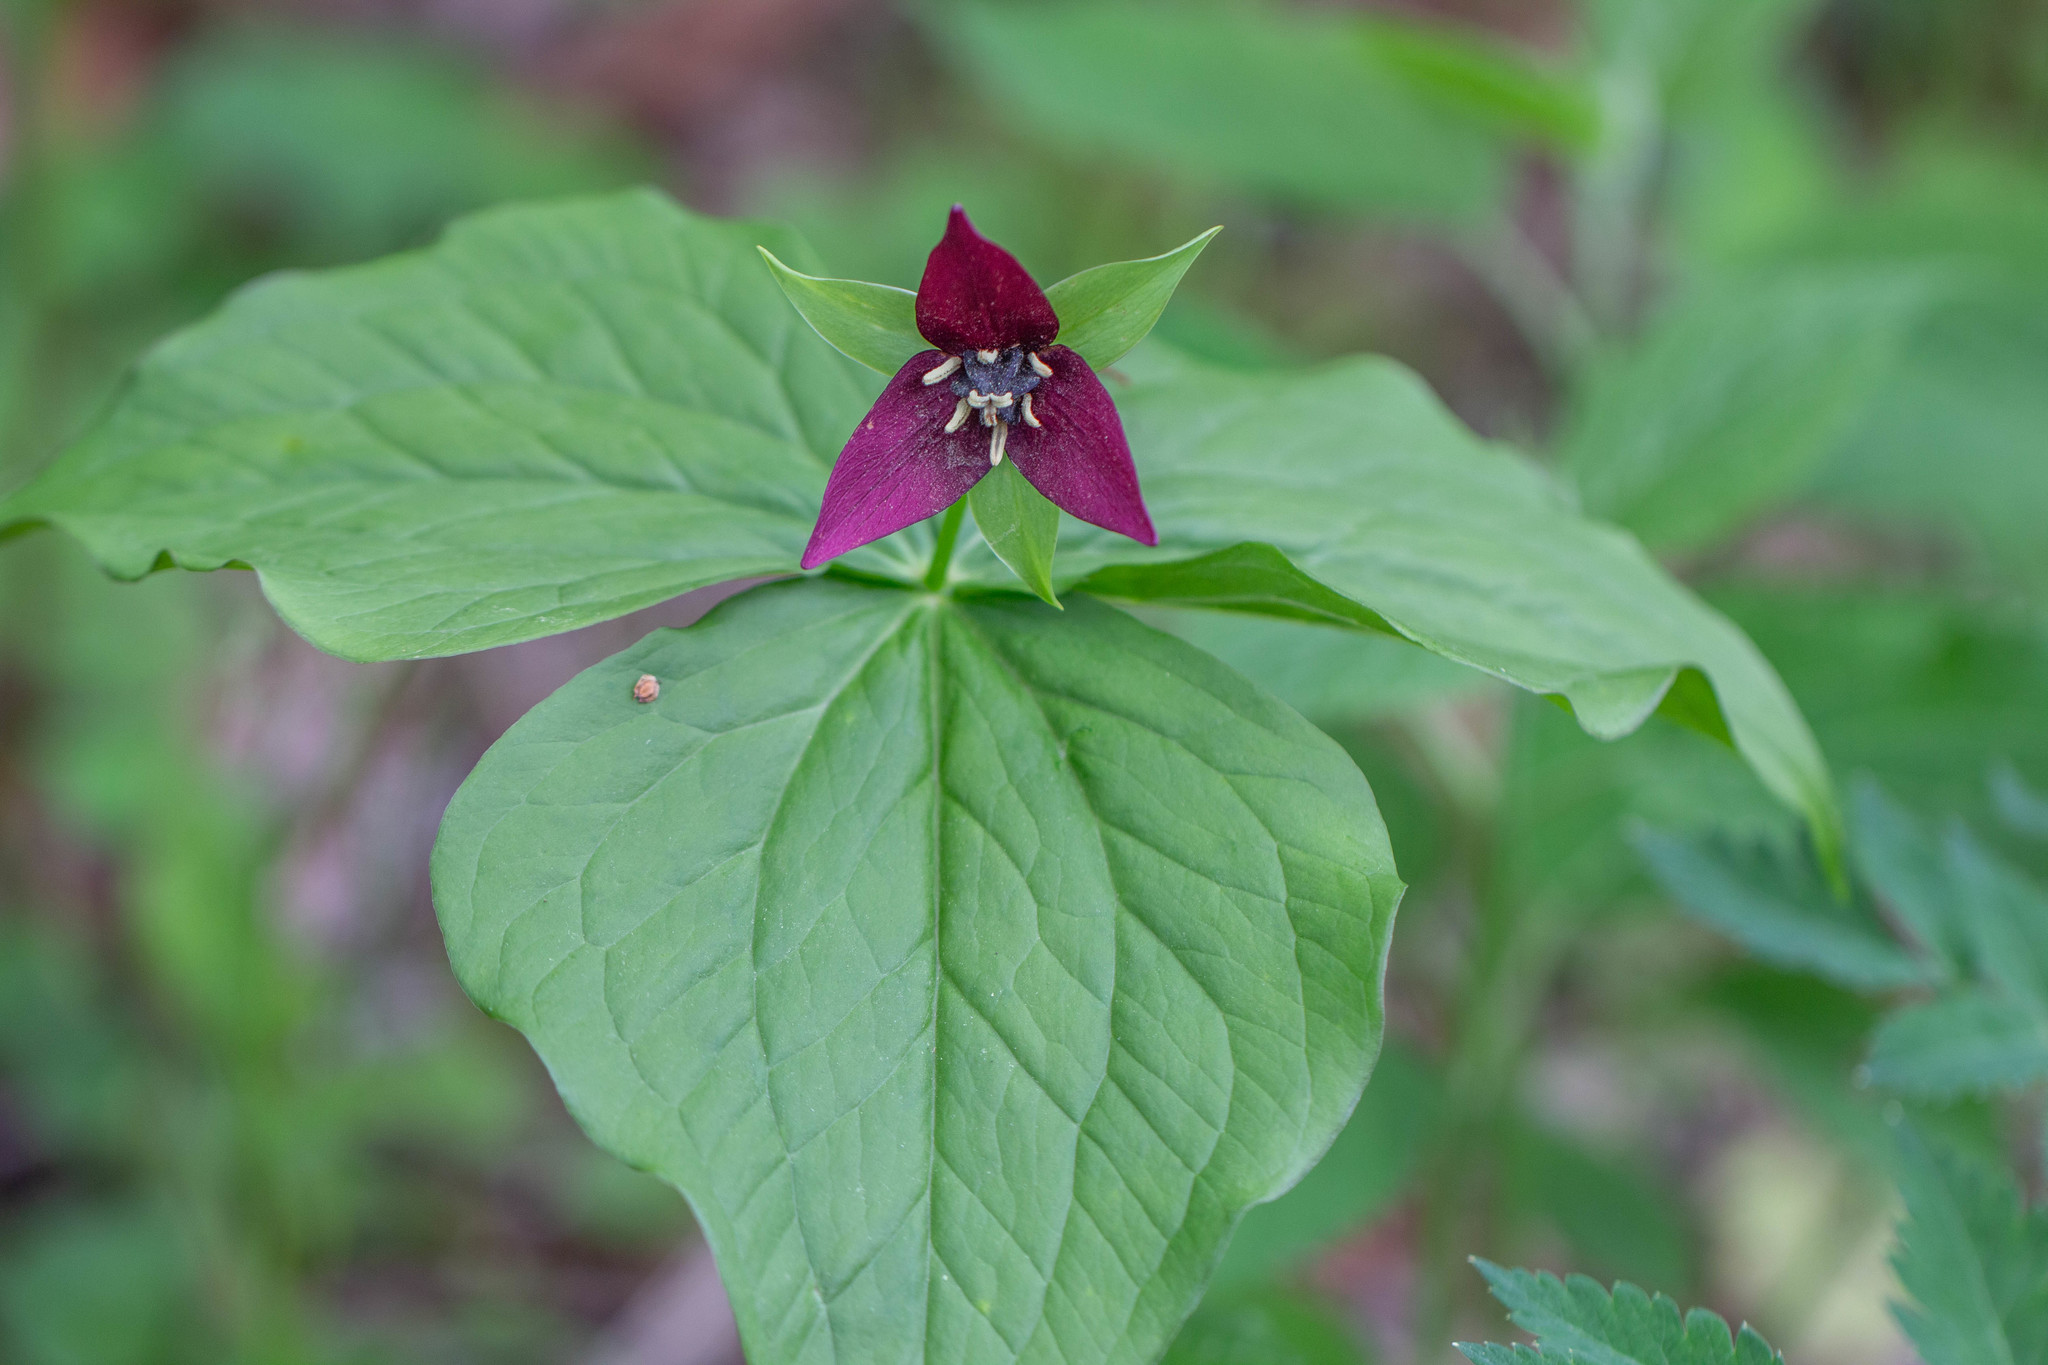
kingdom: Plantae
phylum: Tracheophyta
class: Liliopsida
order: Liliales
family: Melanthiaceae
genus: Trillium
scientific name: Trillium erectum
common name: Purple trillium
